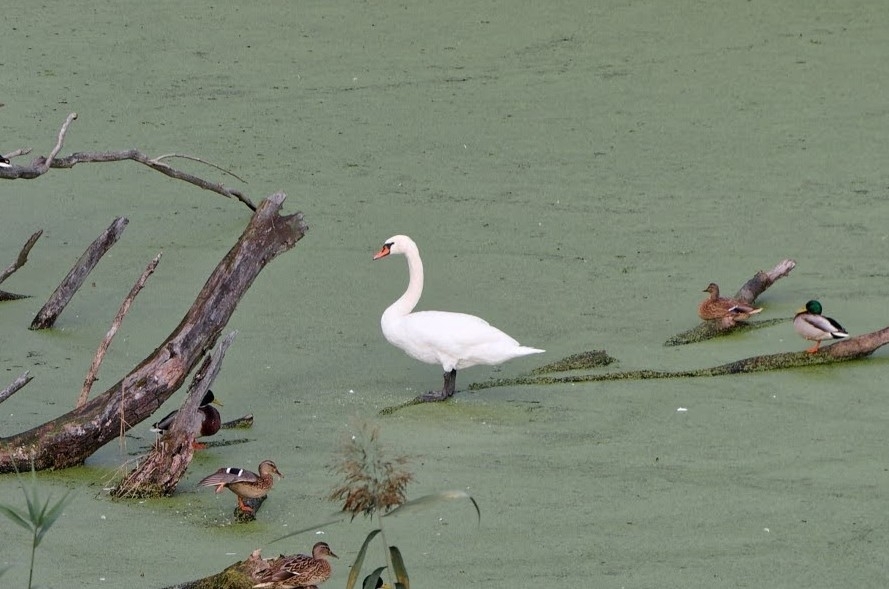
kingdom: Animalia
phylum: Chordata
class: Aves
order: Anseriformes
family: Anatidae
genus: Cygnus
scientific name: Cygnus olor
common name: Mute swan
